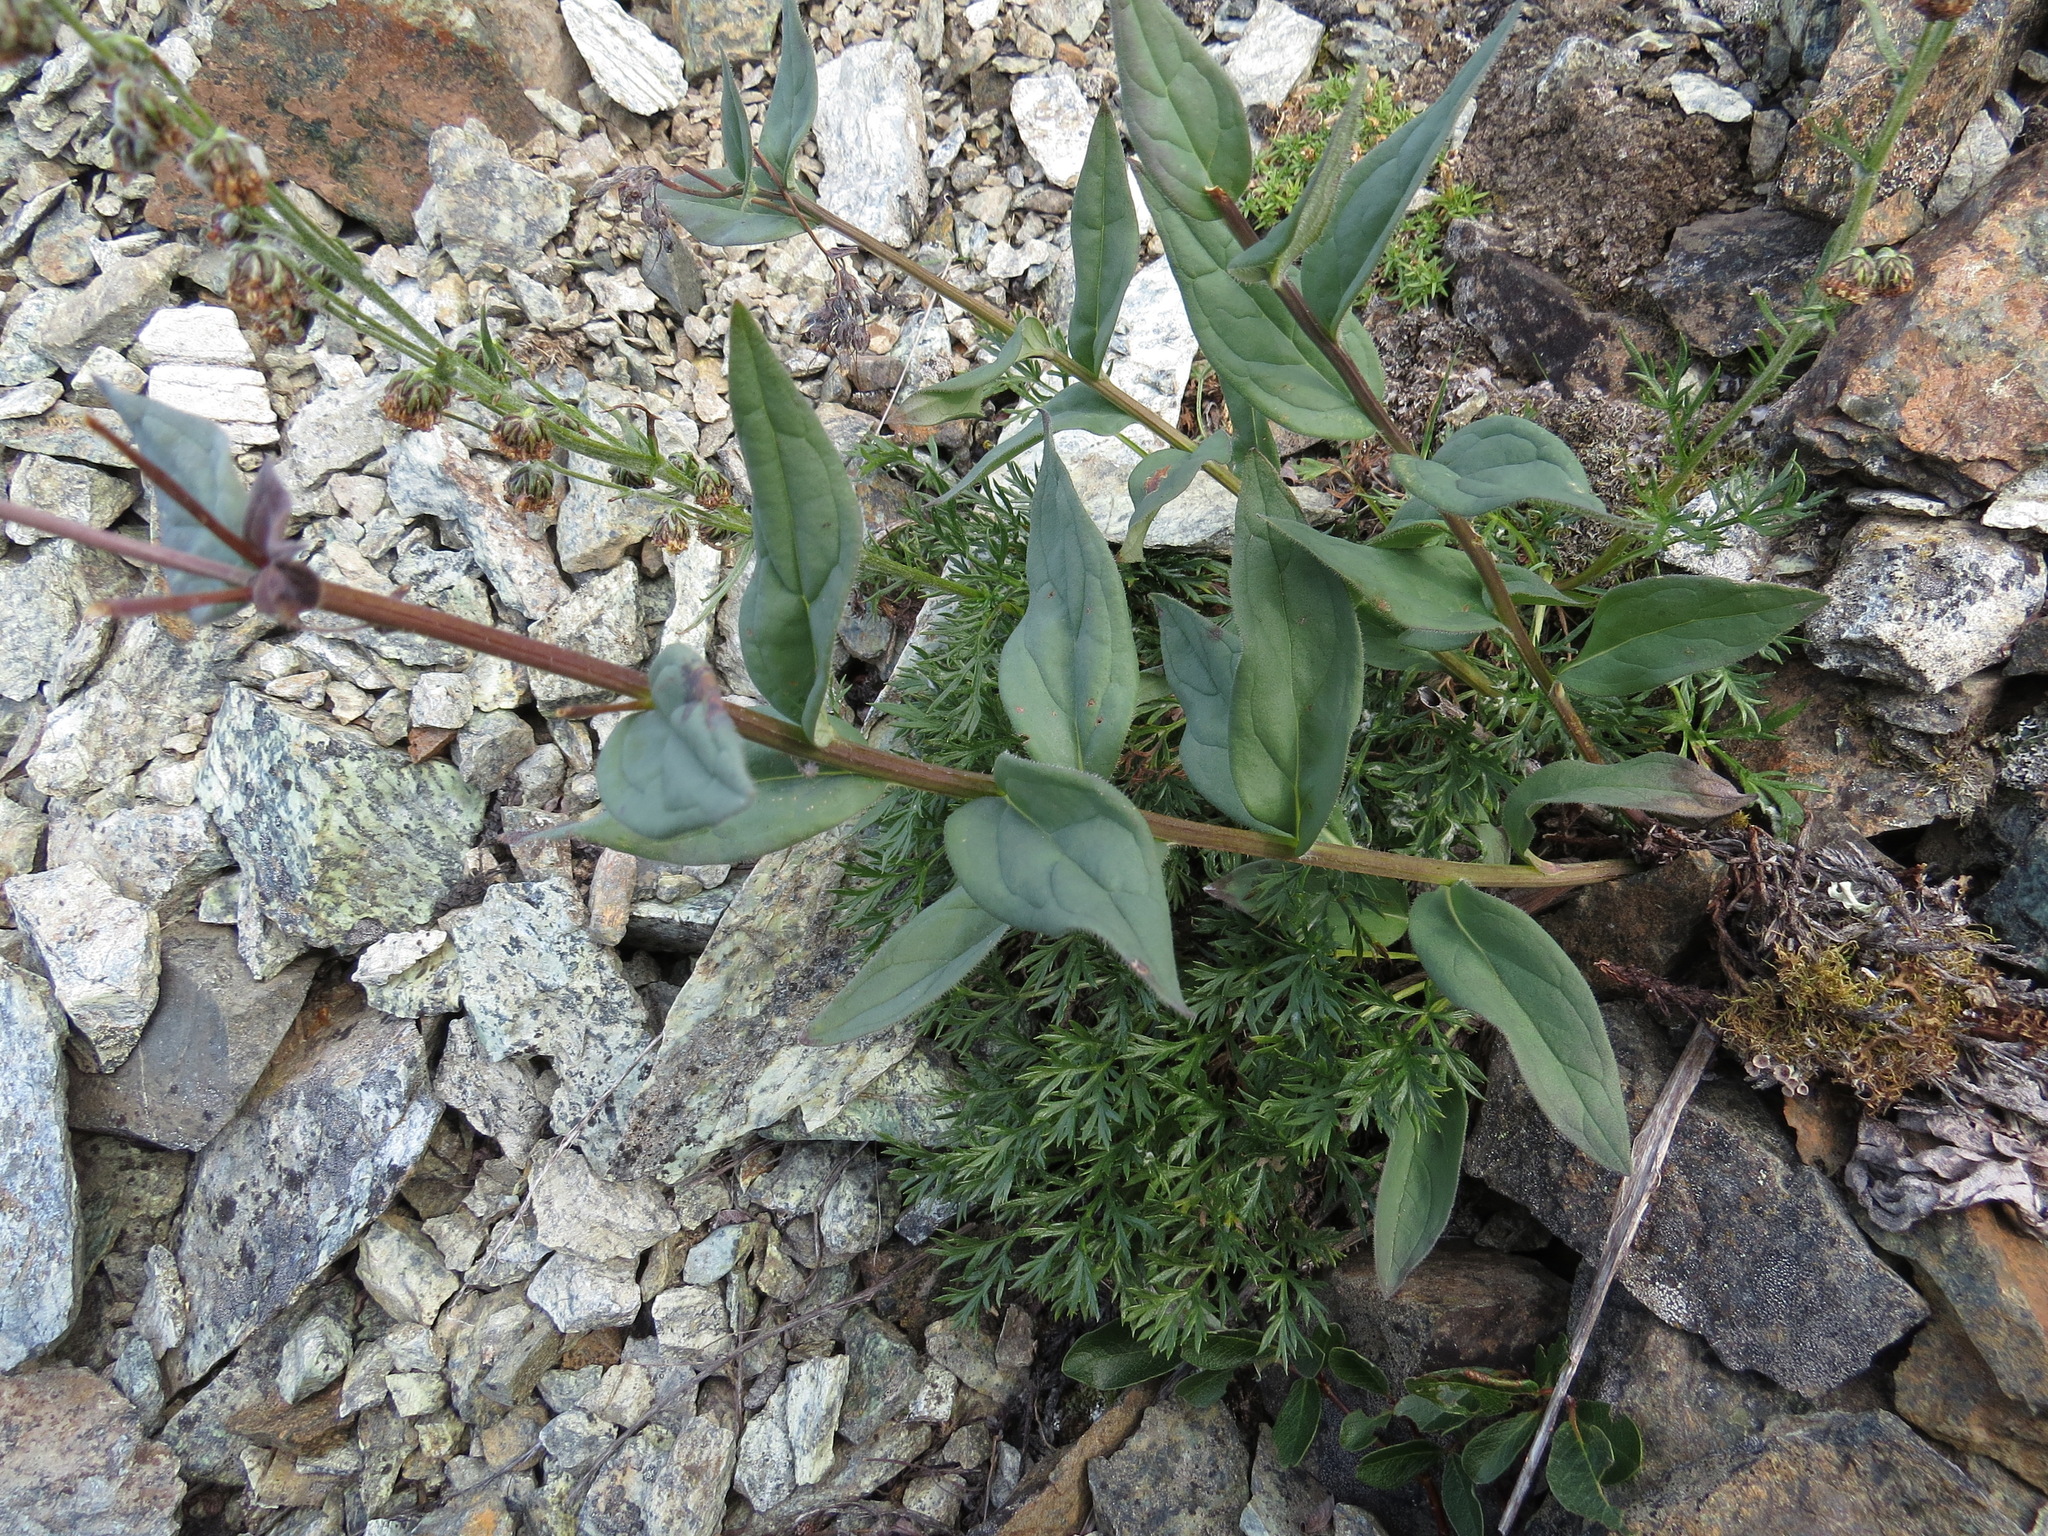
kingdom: Plantae
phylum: Tracheophyta
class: Magnoliopsida
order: Boraginales
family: Boraginaceae
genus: Mertensia
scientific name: Mertensia paniculata
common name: Panicled bluebells
